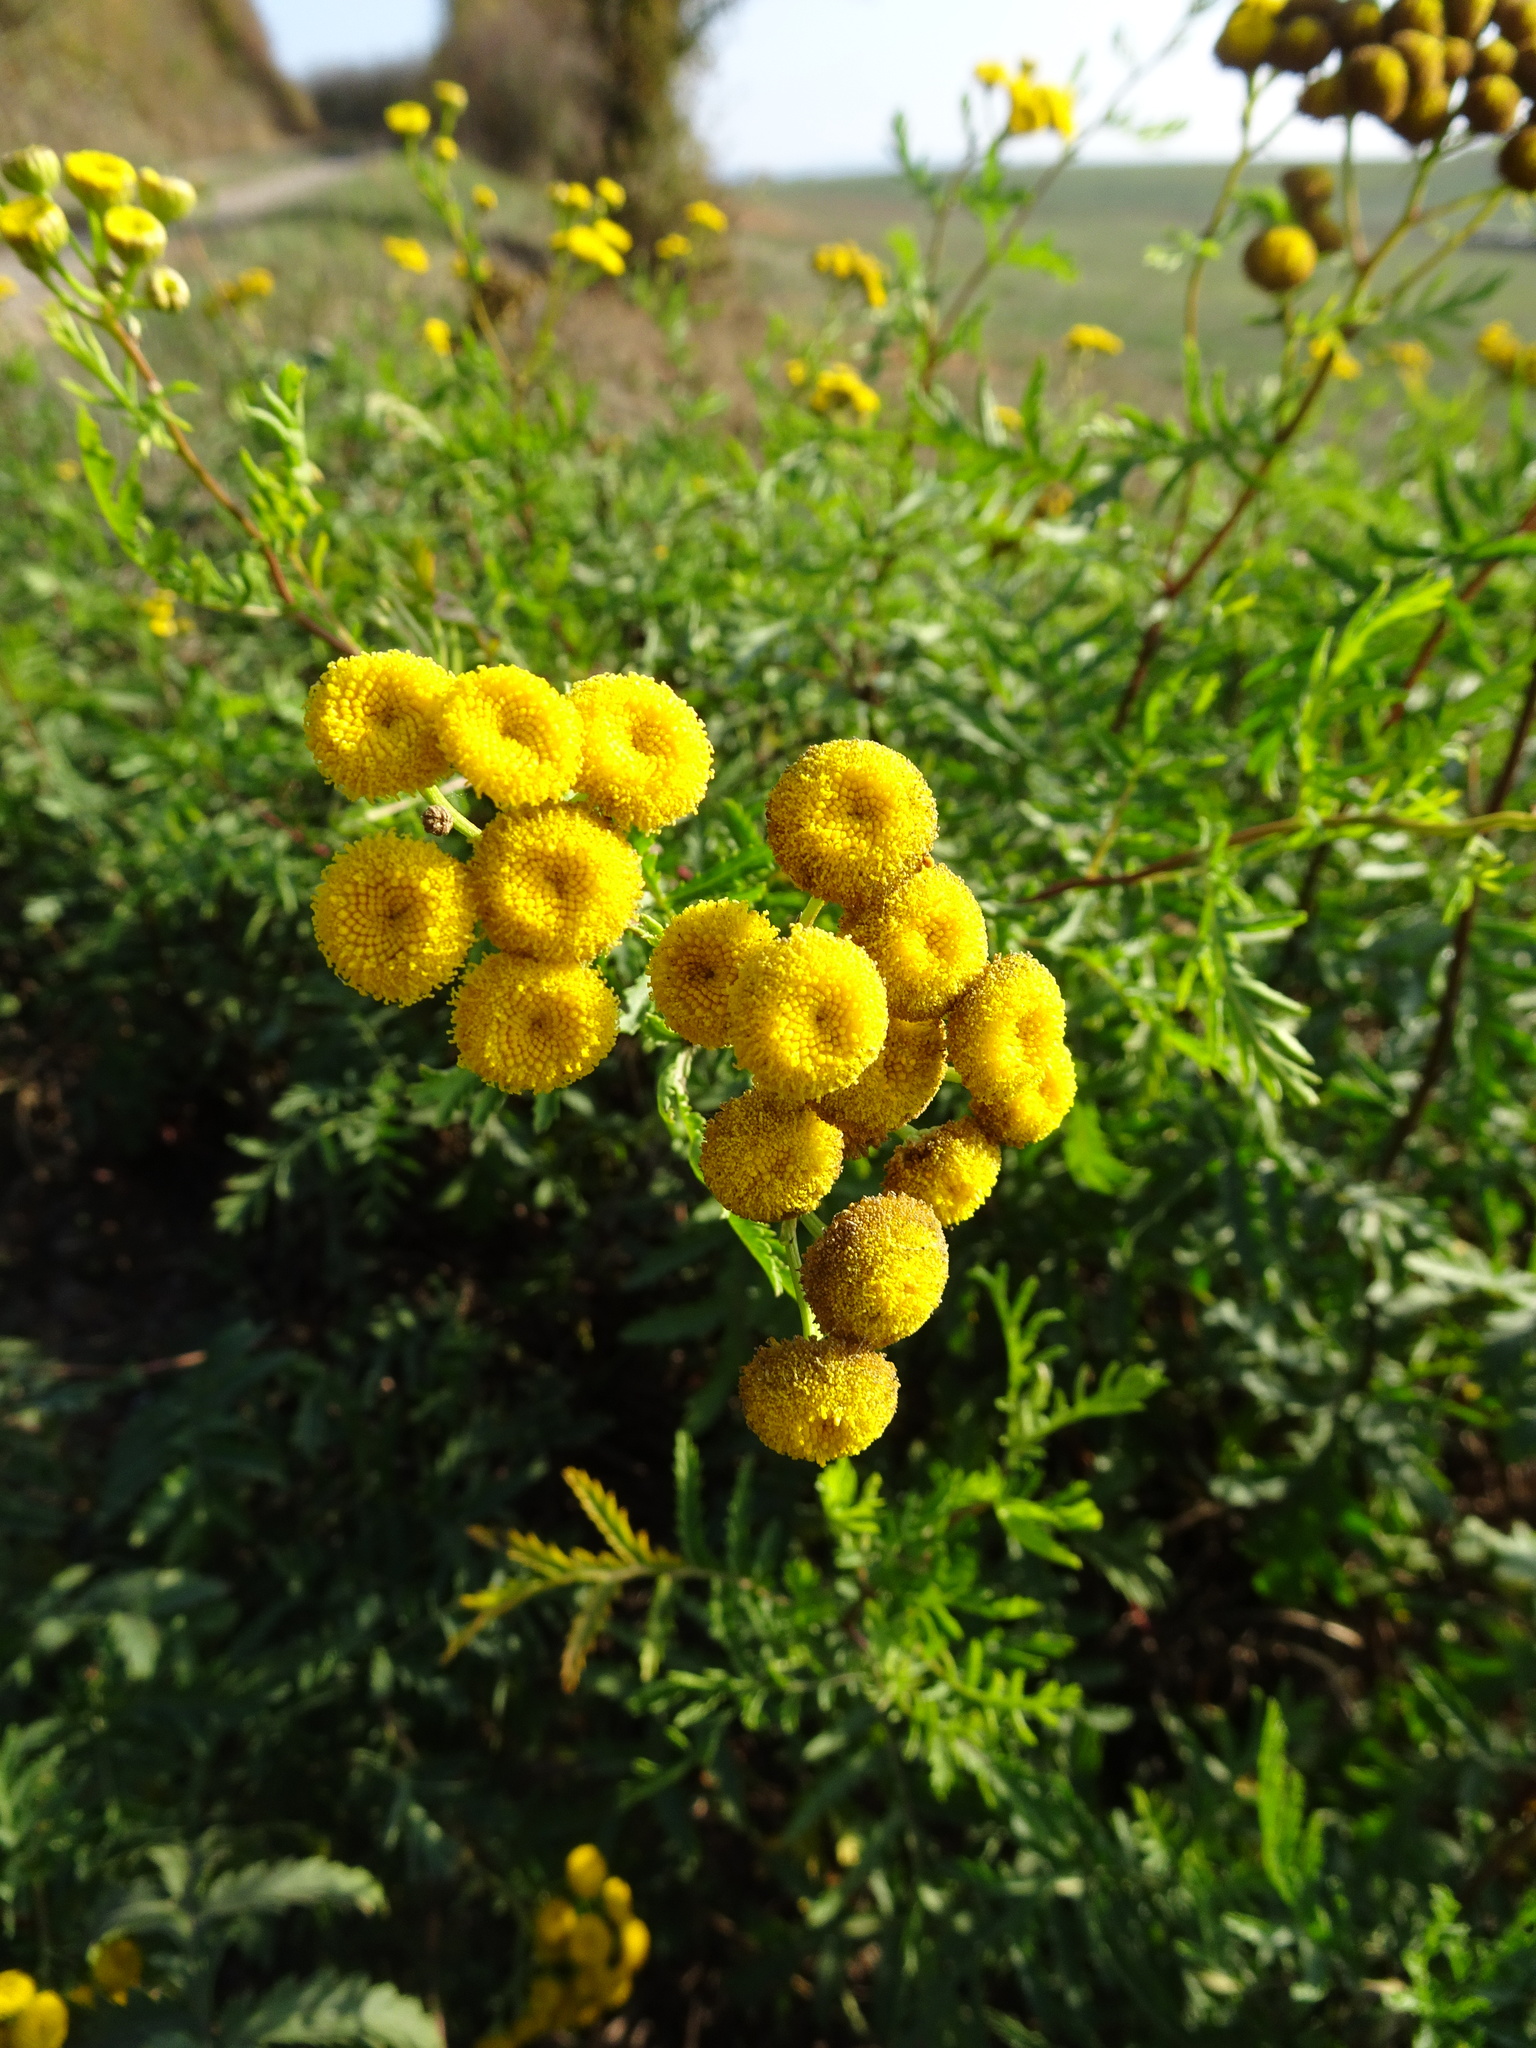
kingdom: Plantae
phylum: Tracheophyta
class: Magnoliopsida
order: Asterales
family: Asteraceae
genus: Tanacetum
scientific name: Tanacetum vulgare
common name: Common tansy
